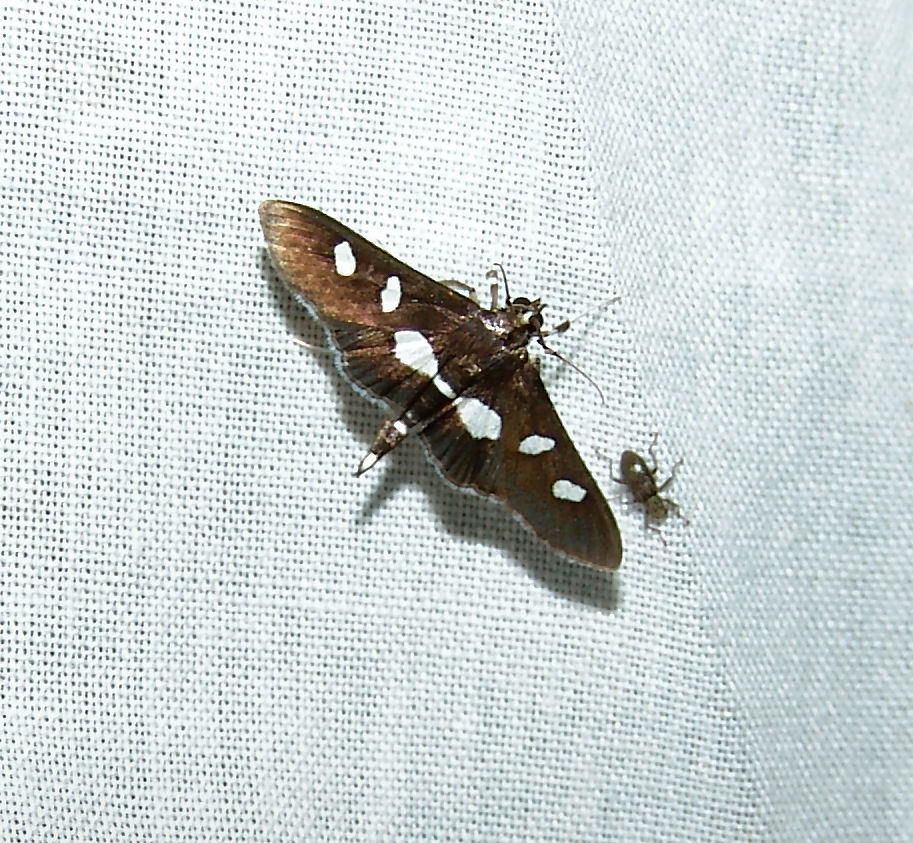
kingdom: Animalia
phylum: Arthropoda
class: Insecta
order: Lepidoptera
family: Crambidae
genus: Desmia
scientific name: Desmia
